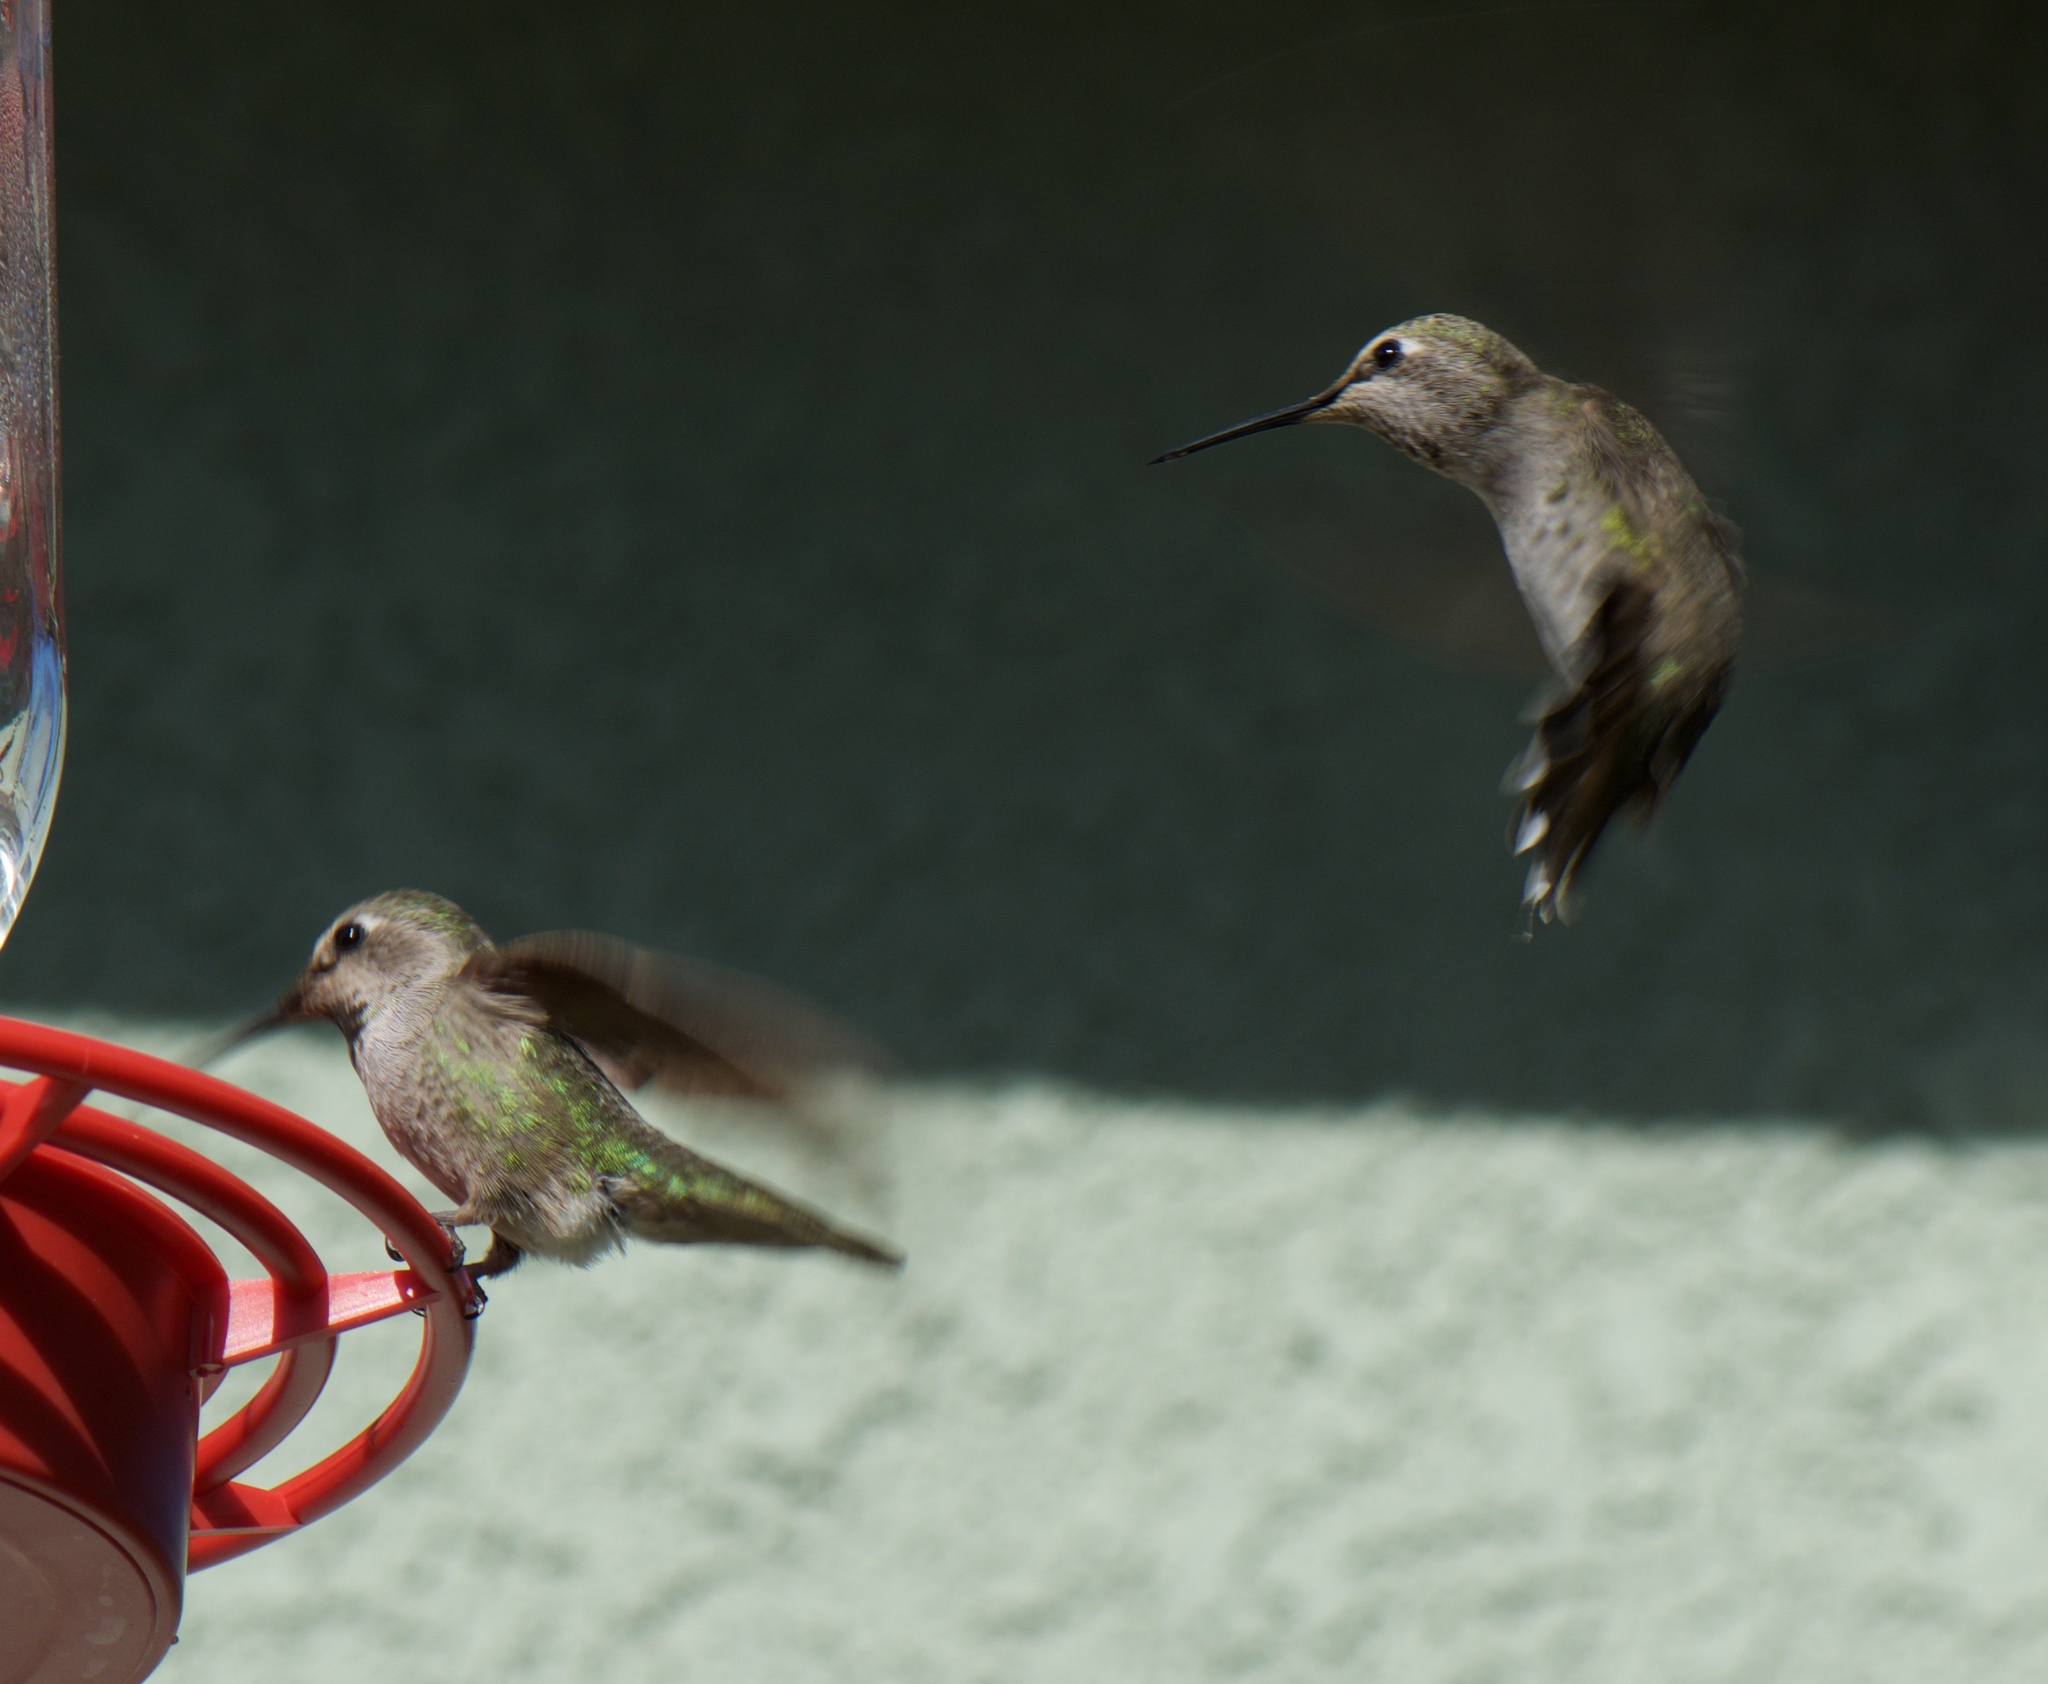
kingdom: Animalia
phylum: Chordata
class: Aves
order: Apodiformes
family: Trochilidae
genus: Calypte
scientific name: Calypte anna
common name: Anna's hummingbird
